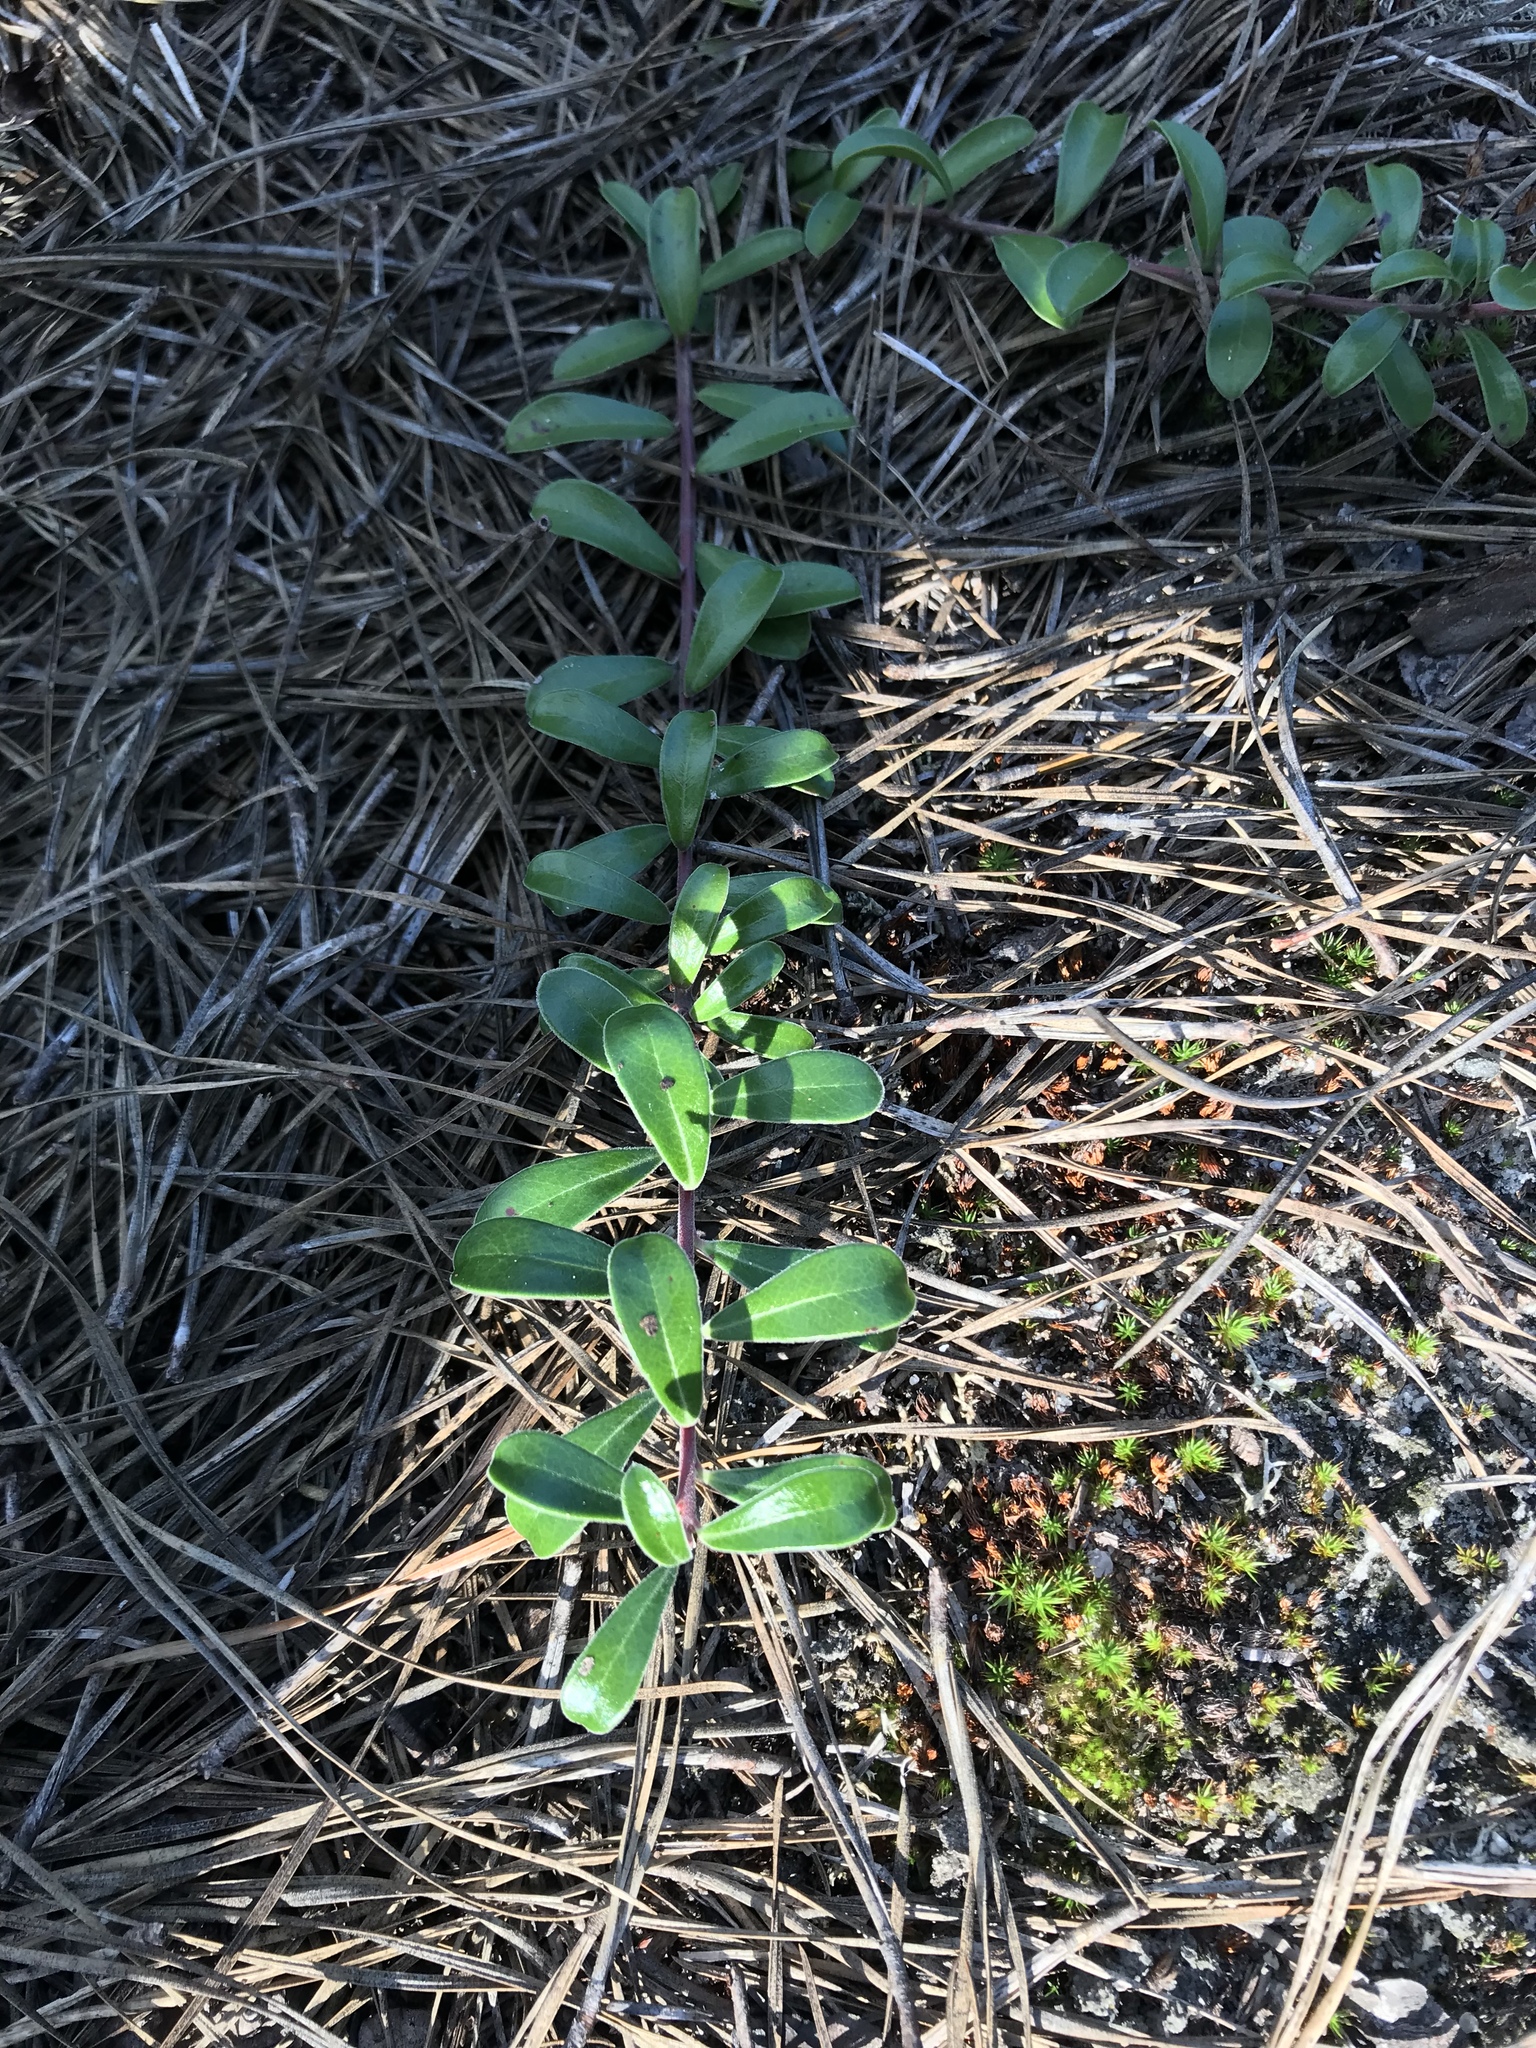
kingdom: Plantae
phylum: Tracheophyta
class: Magnoliopsida
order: Ericales
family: Ericaceae
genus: Arctostaphylos
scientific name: Arctostaphylos uva-ursi
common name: Bearberry
